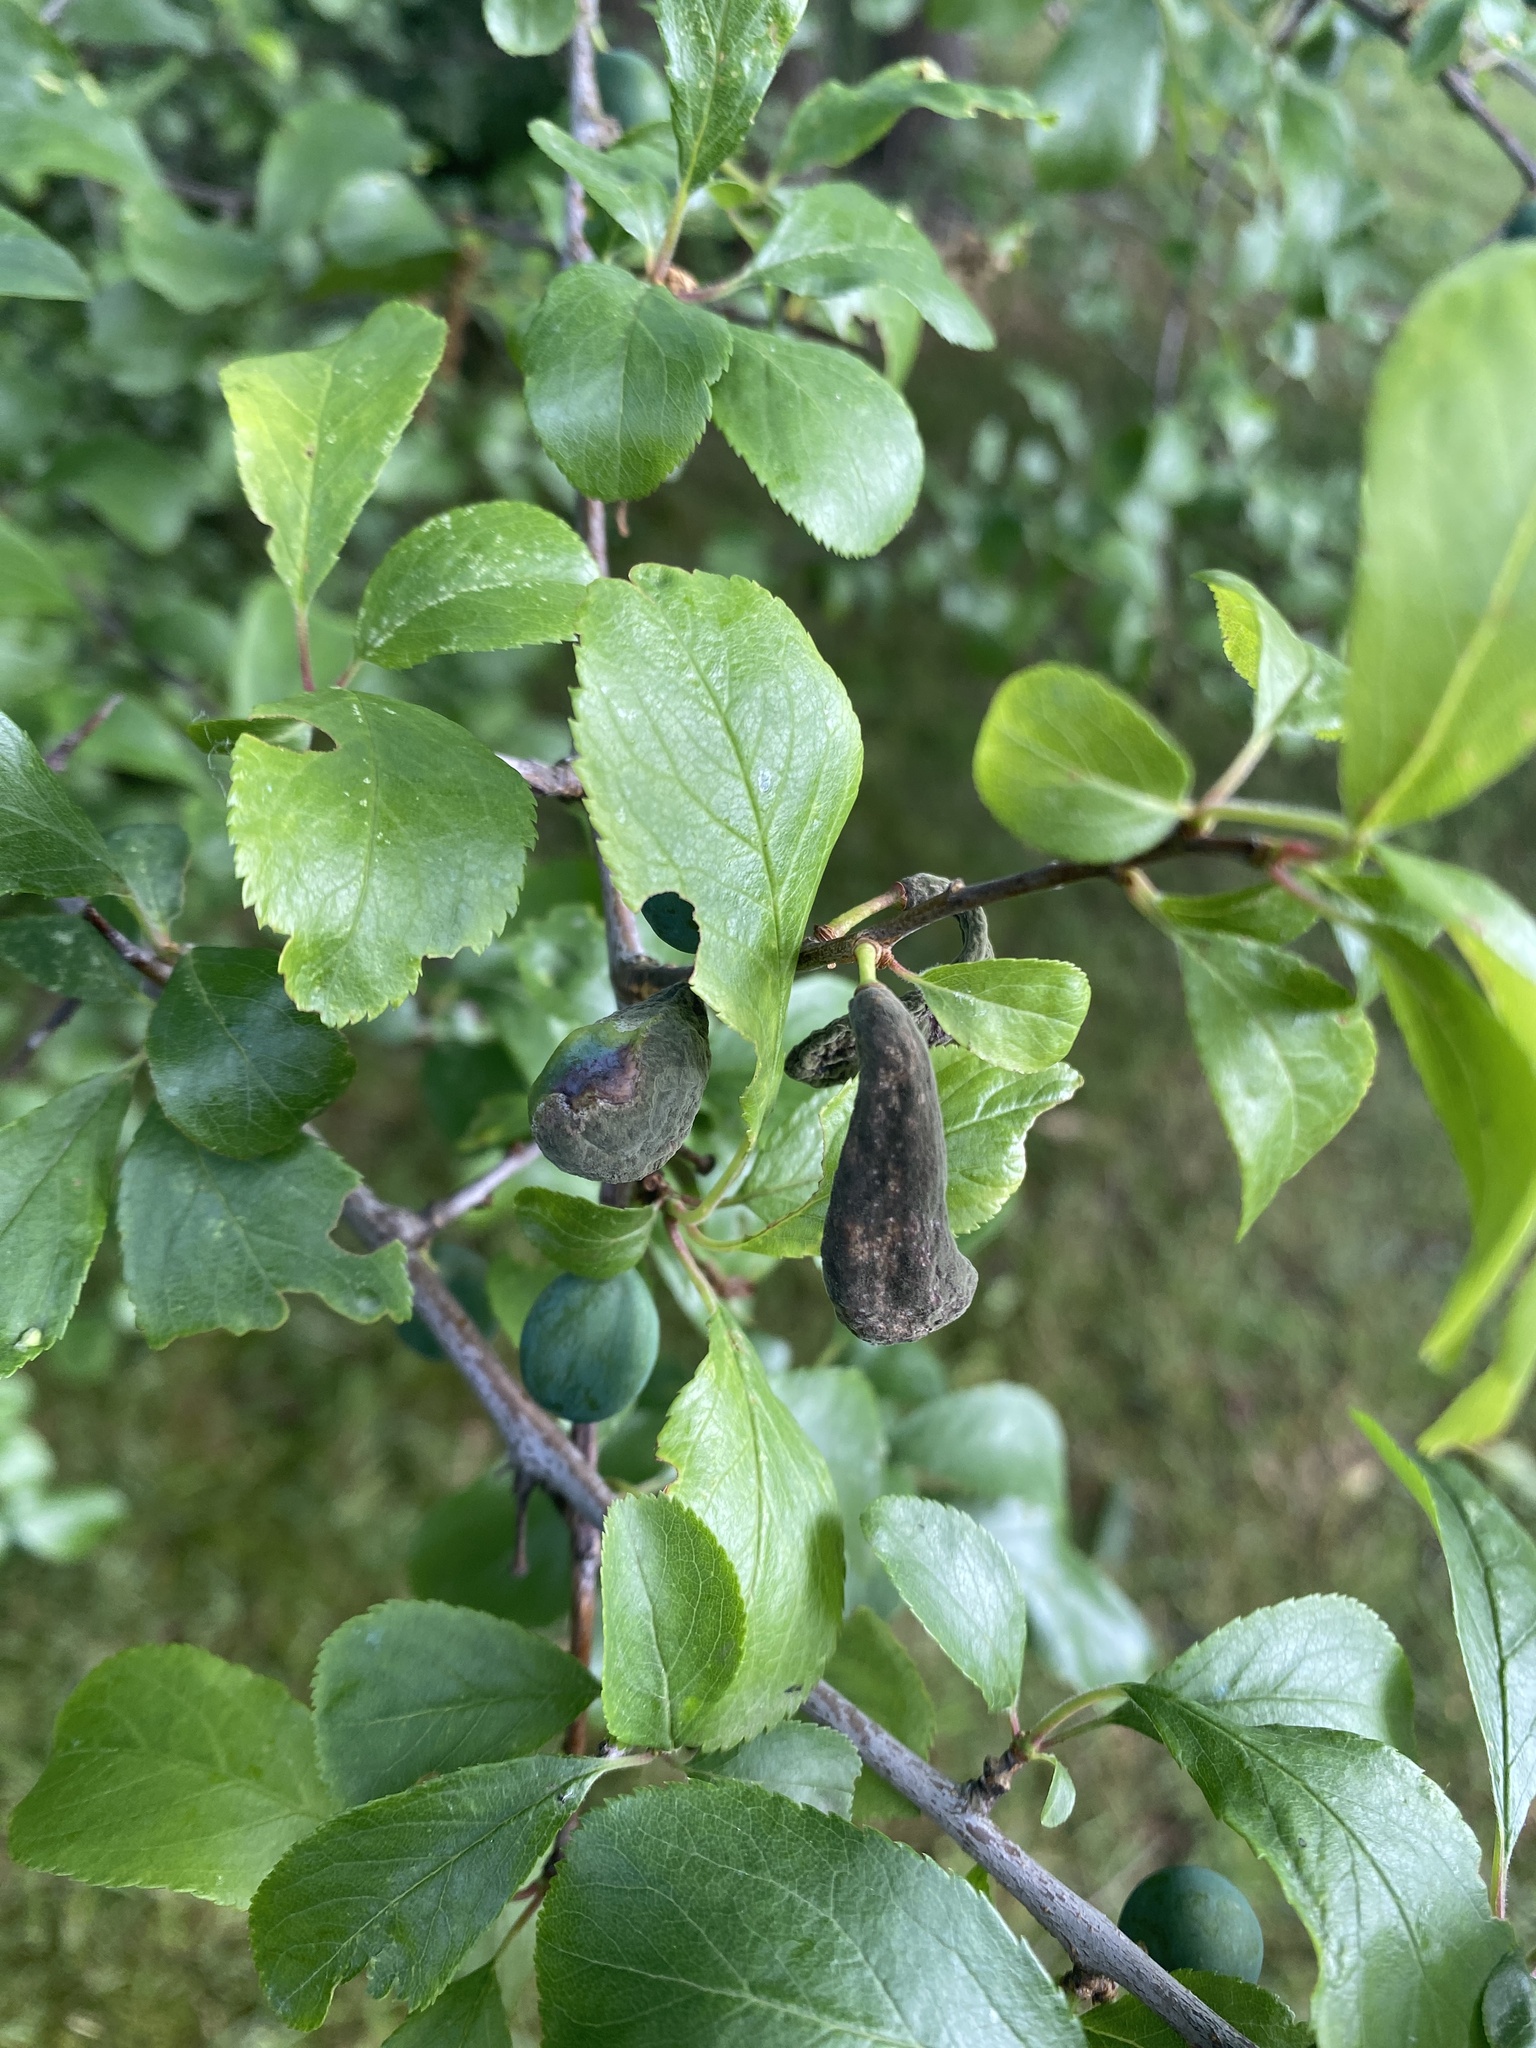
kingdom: Fungi
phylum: Ascomycota
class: Taphrinomycetes
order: Taphrinales
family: Taphrinaceae
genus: Taphrina
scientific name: Taphrina pruni
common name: Pocket plum
